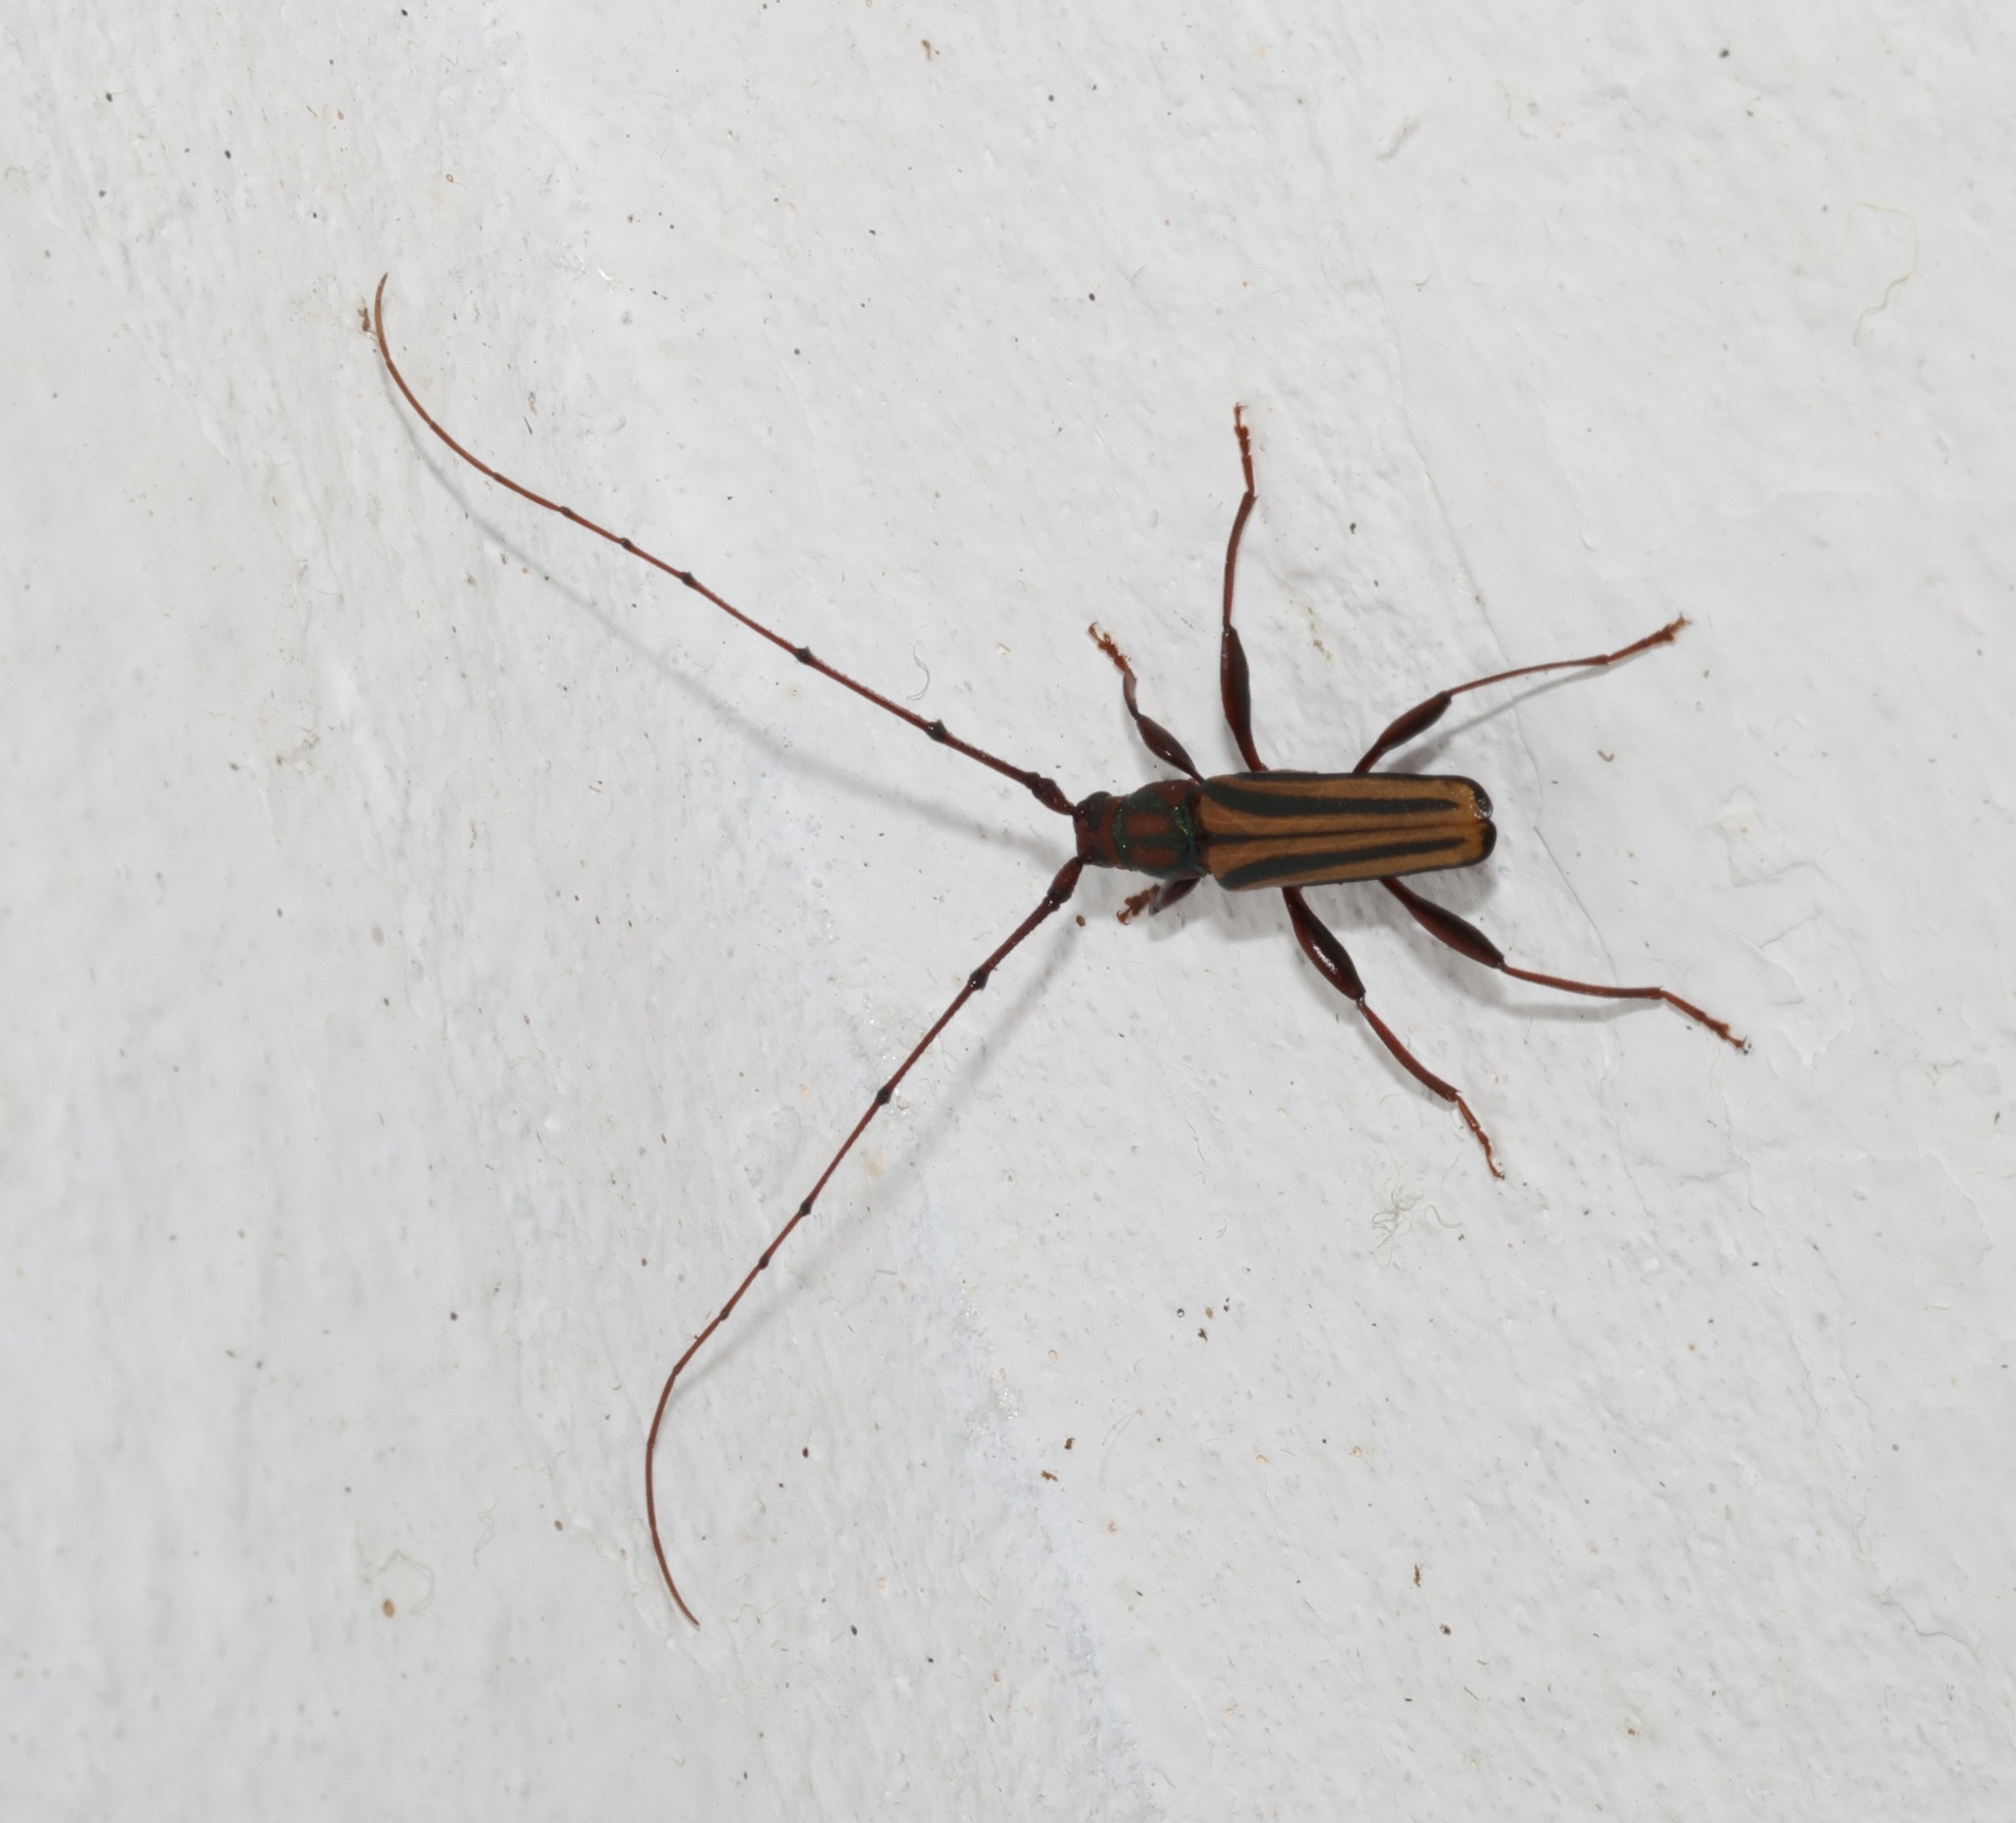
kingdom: Animalia
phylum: Arthropoda
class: Insecta
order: Coleoptera
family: Cerambycidae
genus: Xystrocera
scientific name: Xystrocera globosa
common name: Peach-tree longhorn
